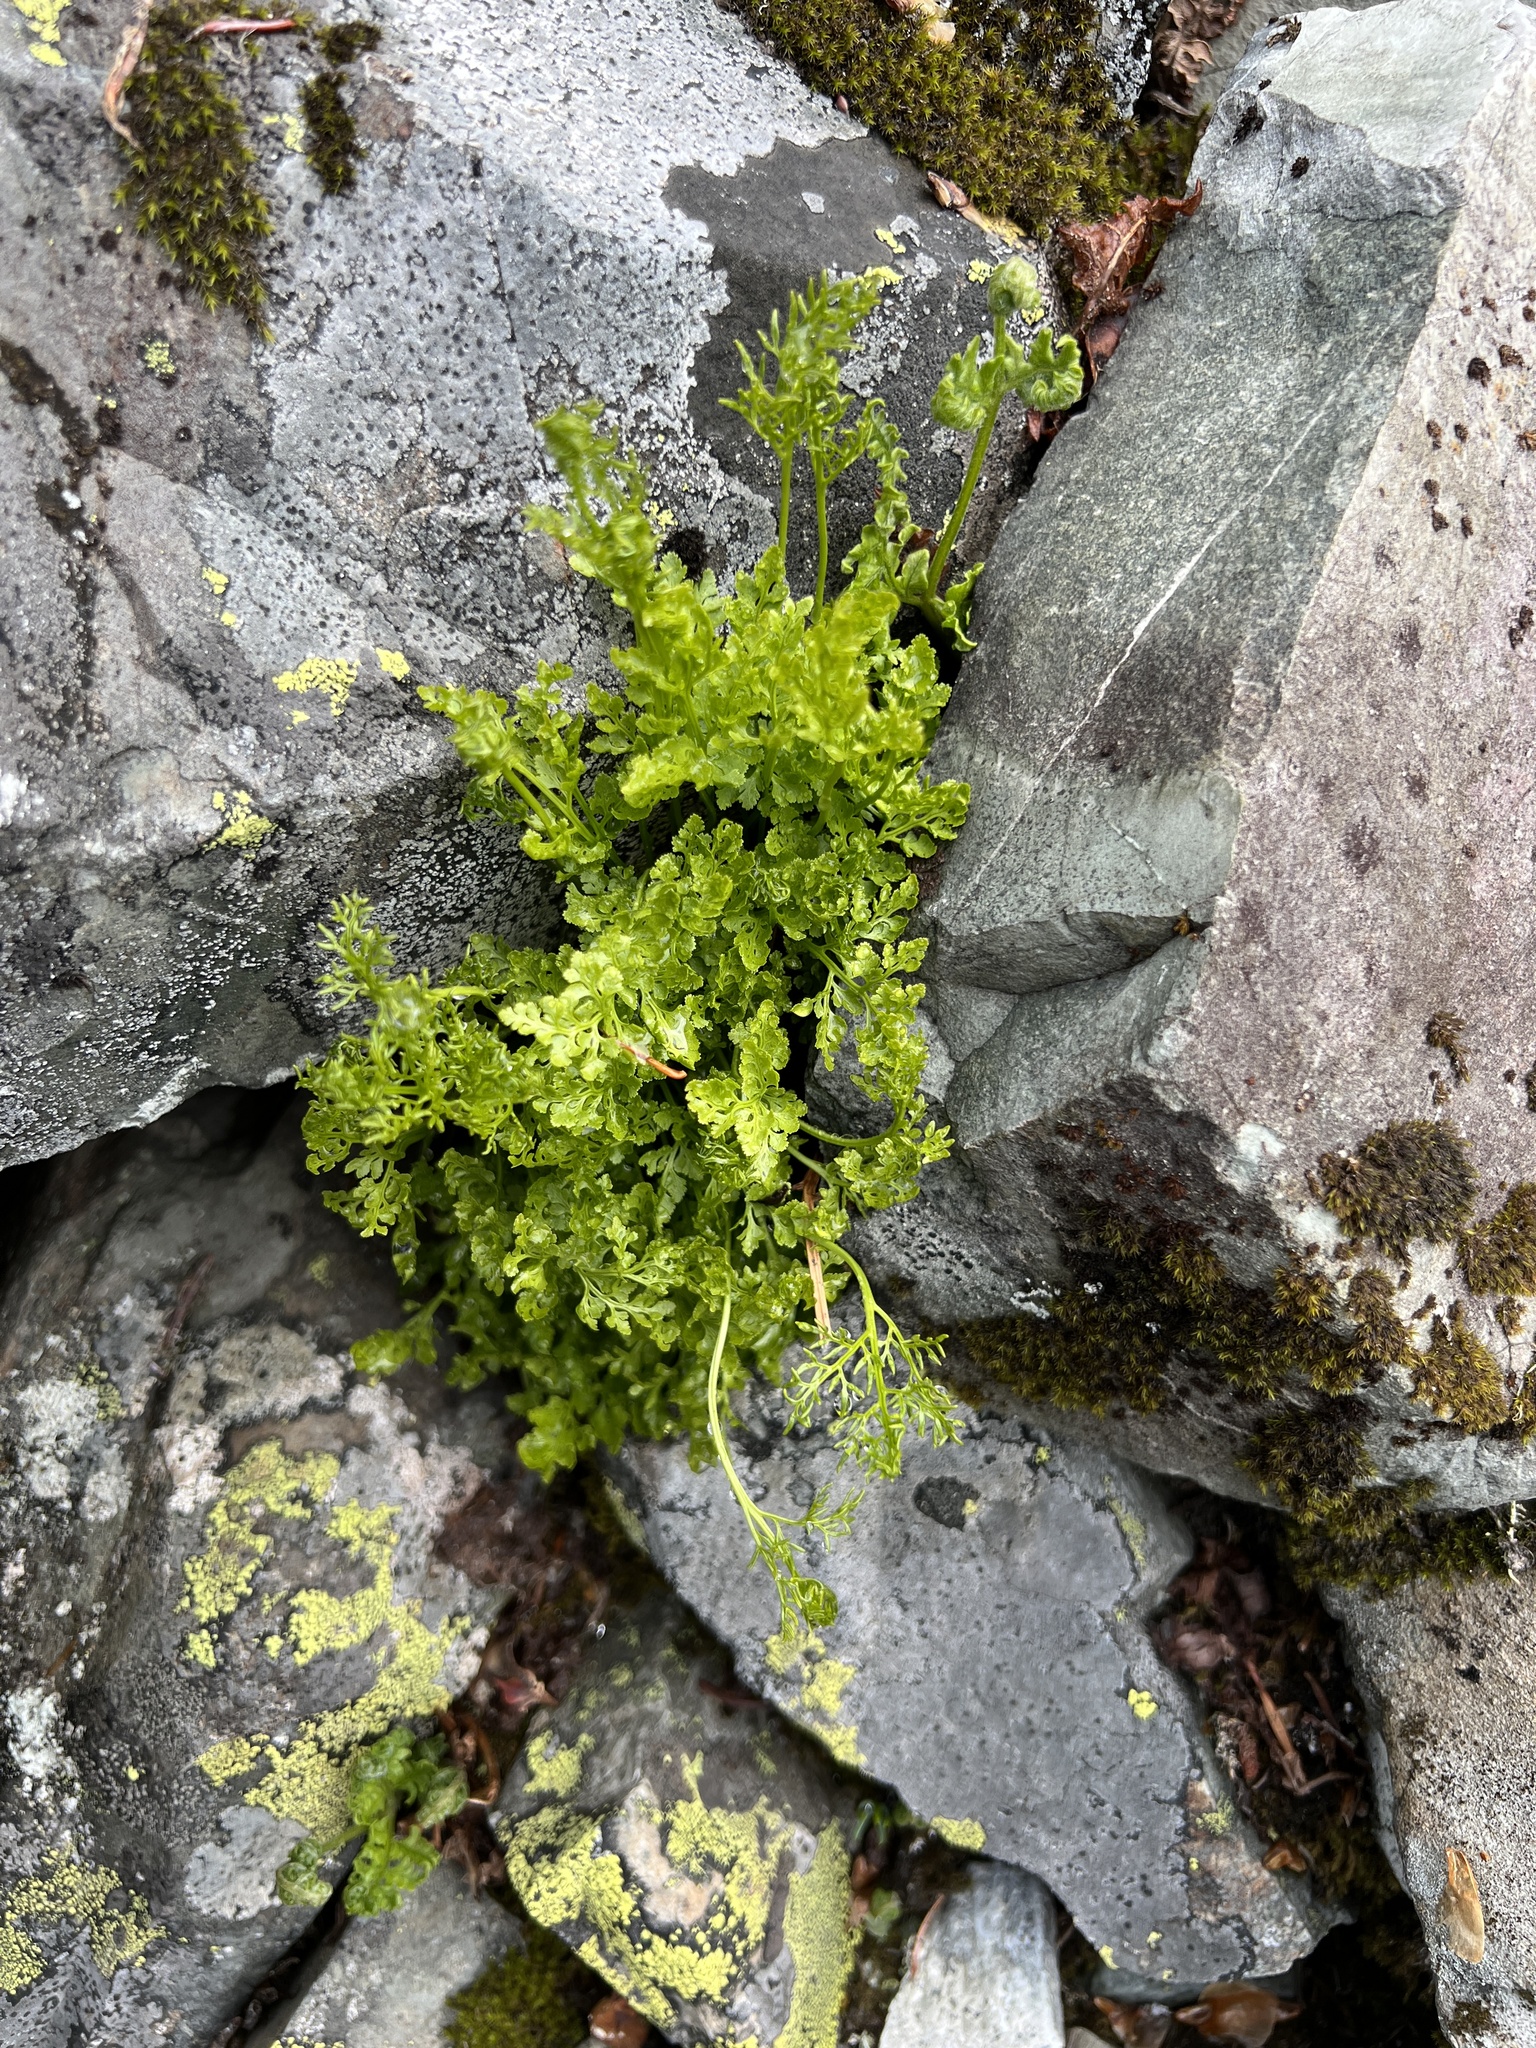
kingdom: Plantae
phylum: Tracheophyta
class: Polypodiopsida
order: Polypodiales
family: Pteridaceae
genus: Cryptogramma
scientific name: Cryptogramma cascadensis
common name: Cascade parsley fern
